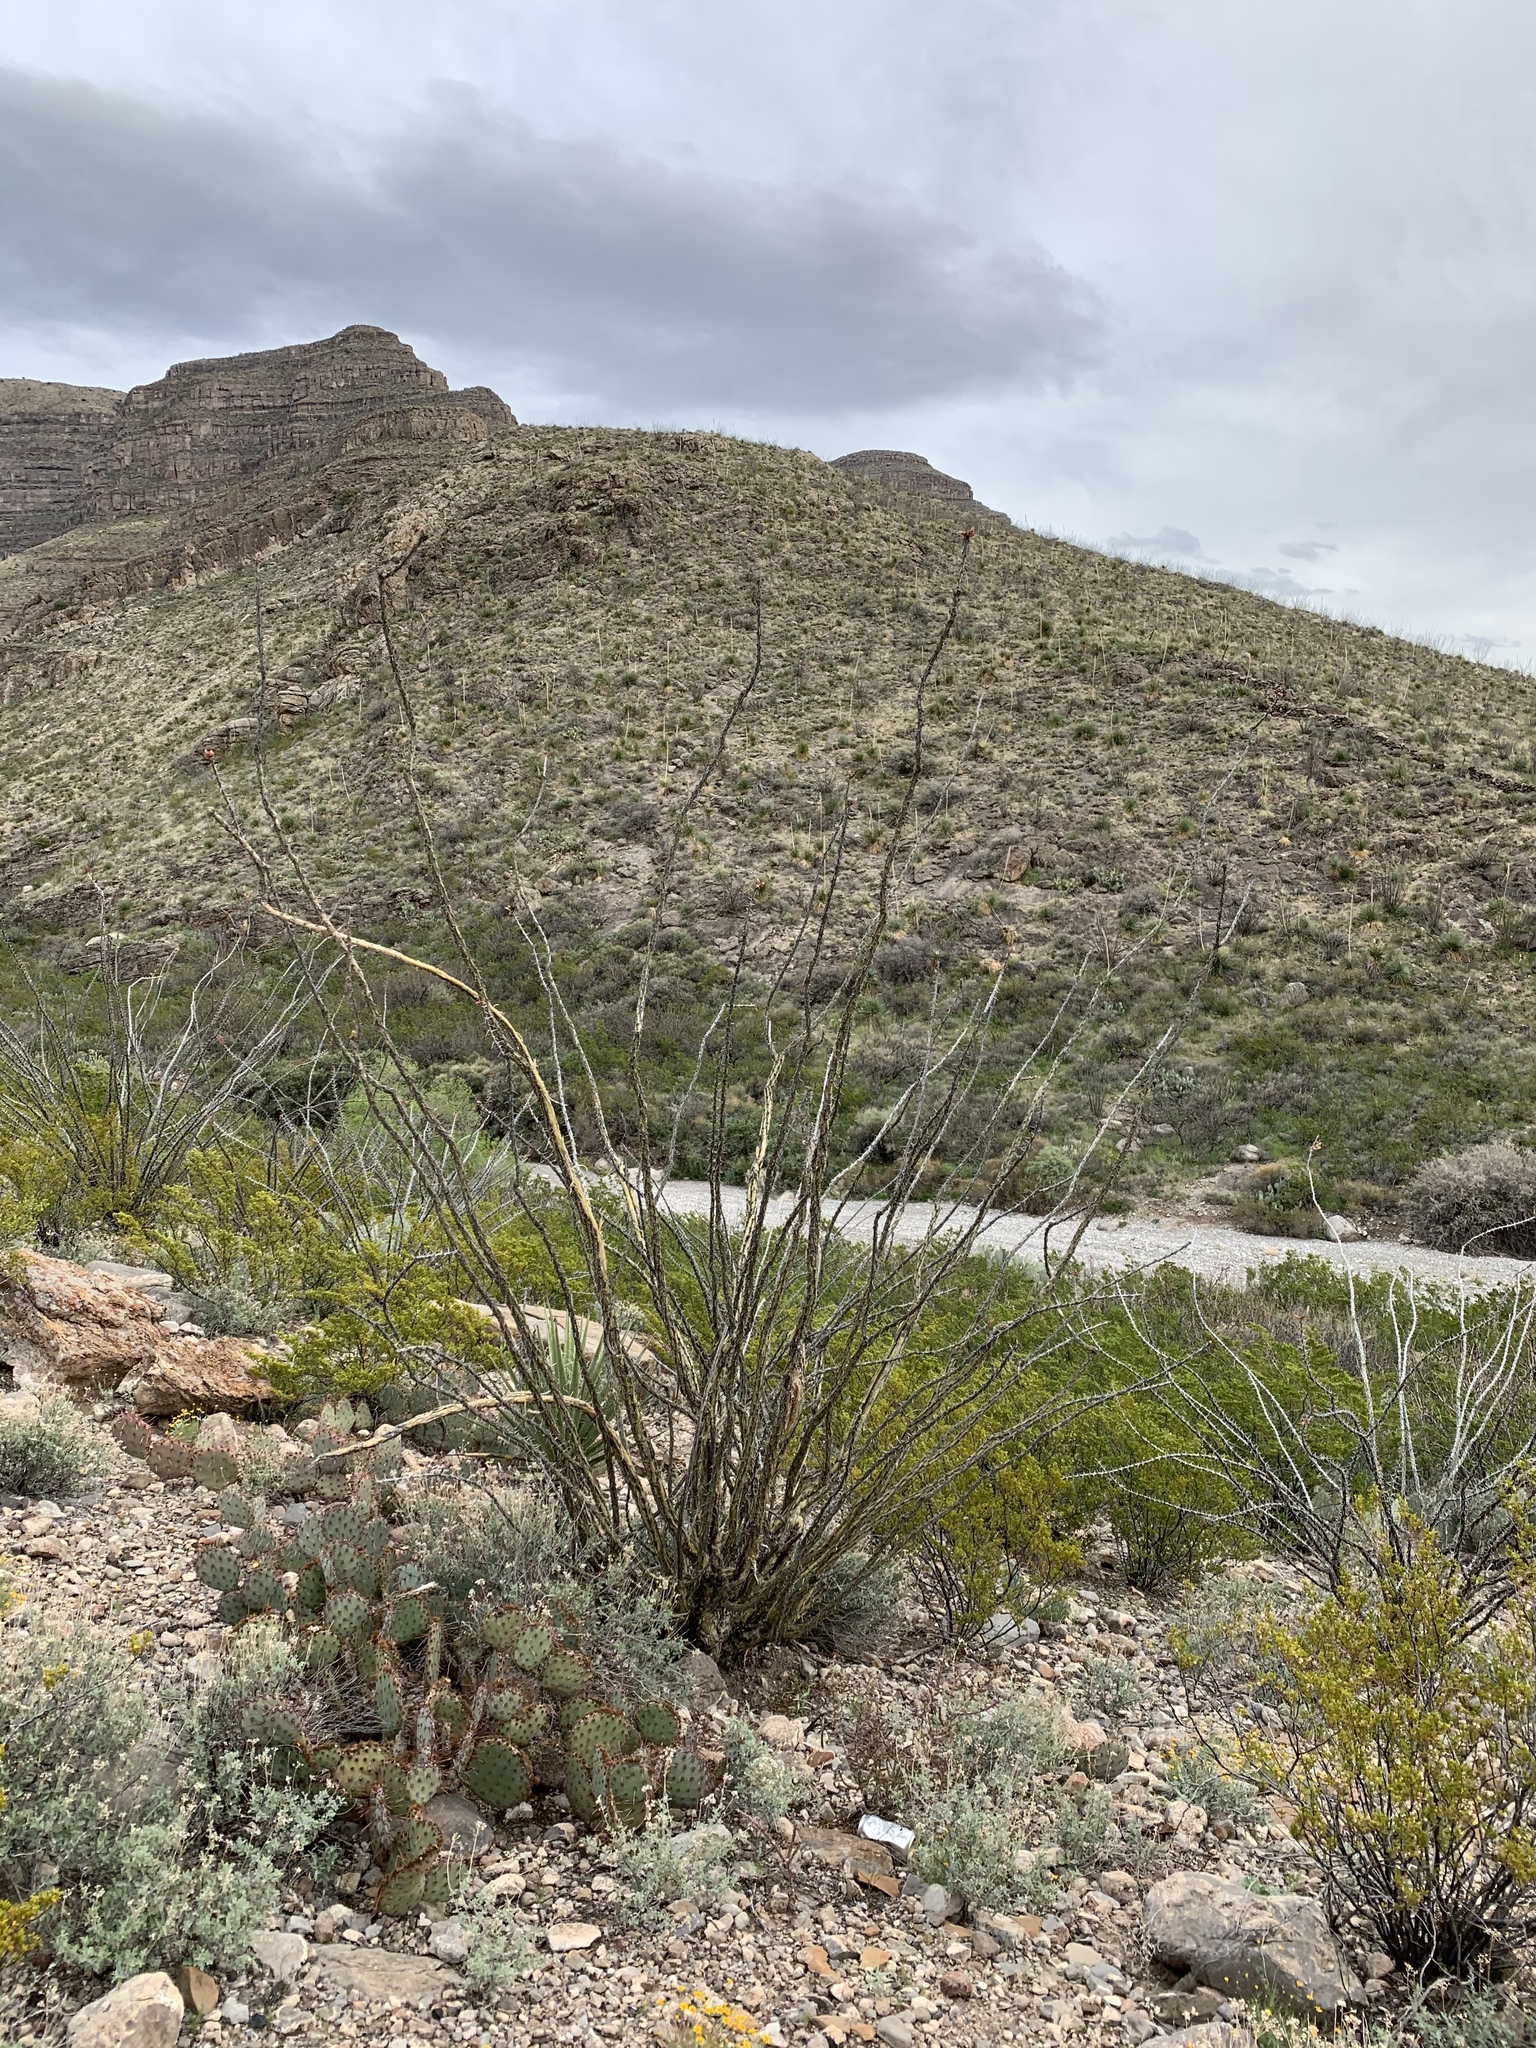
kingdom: Plantae
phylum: Tracheophyta
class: Magnoliopsida
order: Ericales
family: Fouquieriaceae
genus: Fouquieria
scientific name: Fouquieria splendens
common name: Vine-cactus
